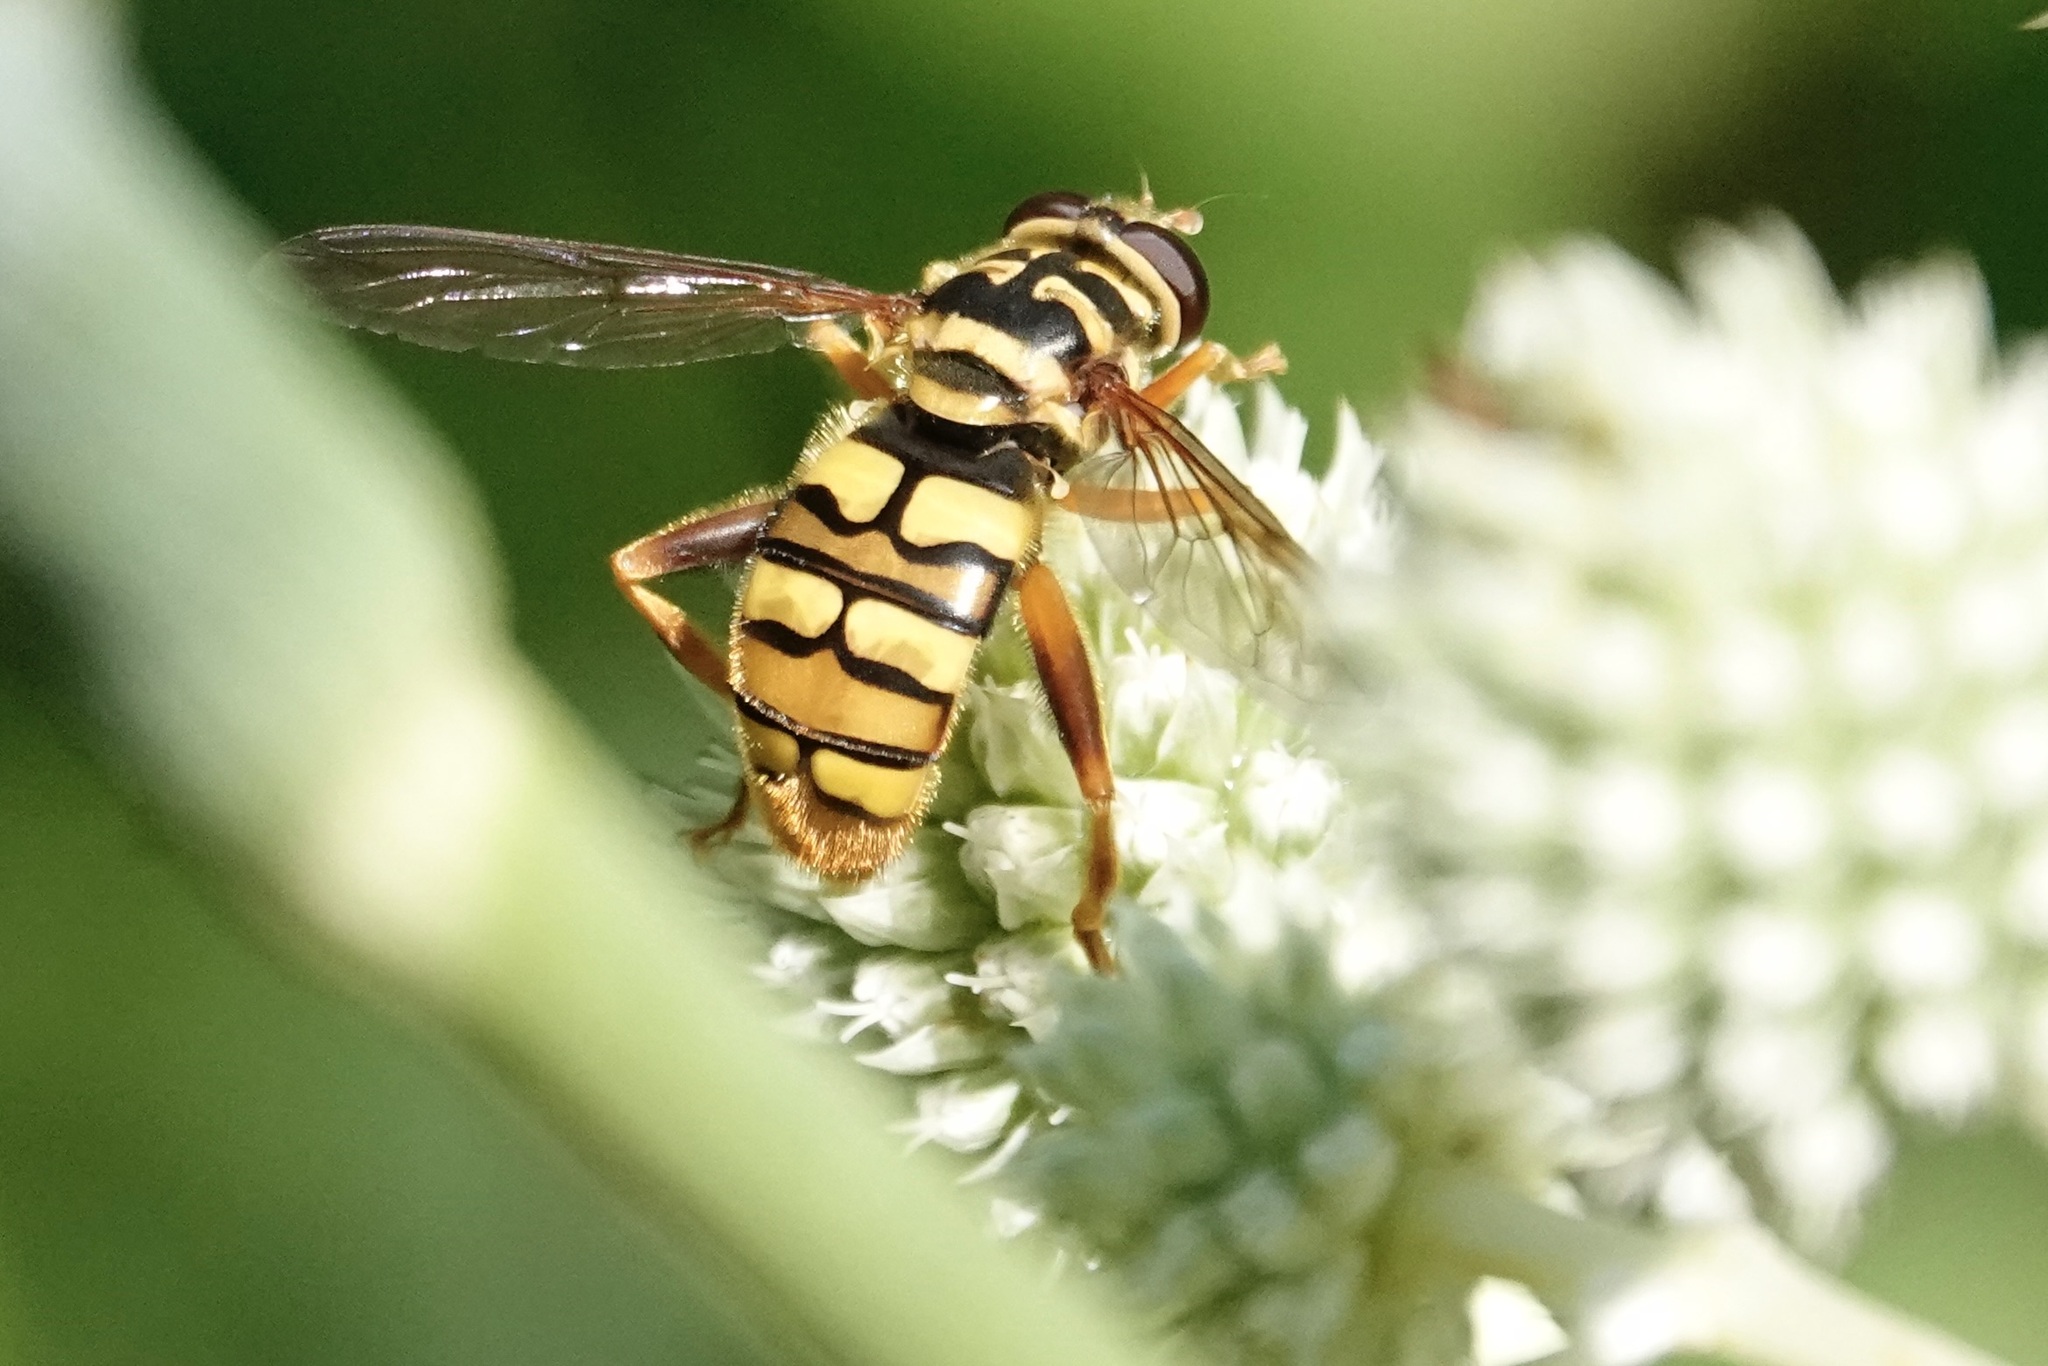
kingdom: Animalia
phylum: Arthropoda
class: Insecta
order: Diptera
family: Syrphidae
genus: Milesia
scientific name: Milesia virginiensis
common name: Virginia giant
